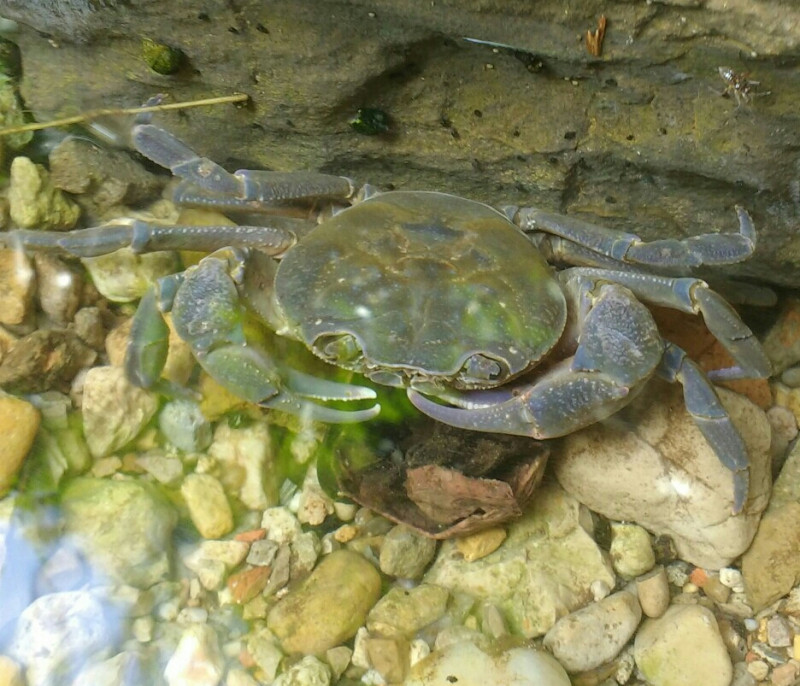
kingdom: Animalia
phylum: Arthropoda
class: Malacostraca
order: Decapoda
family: Potamidae
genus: Potamon
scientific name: Potamon ibericum
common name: Bieberstein's freshwater crab
